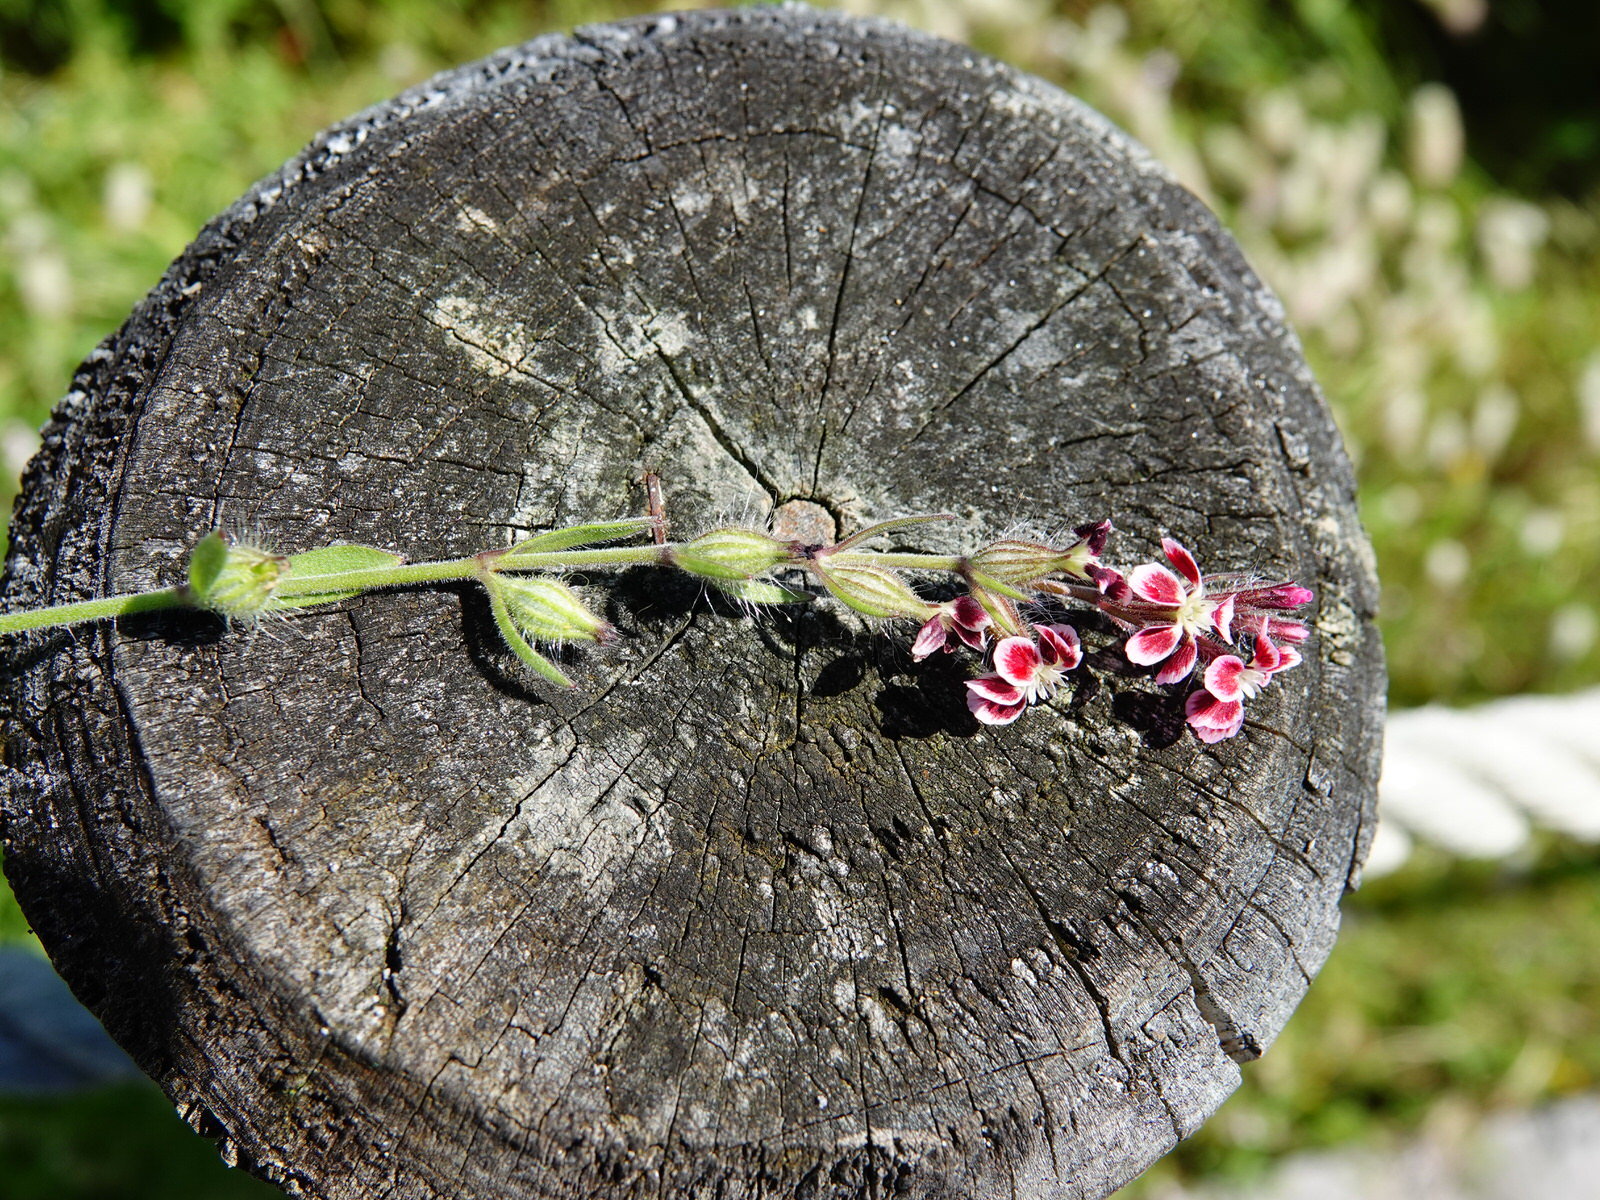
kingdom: Plantae
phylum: Tracheophyta
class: Magnoliopsida
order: Caryophyllales
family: Caryophyllaceae
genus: Silene
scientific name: Silene gallica
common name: Small-flowered catchfly
